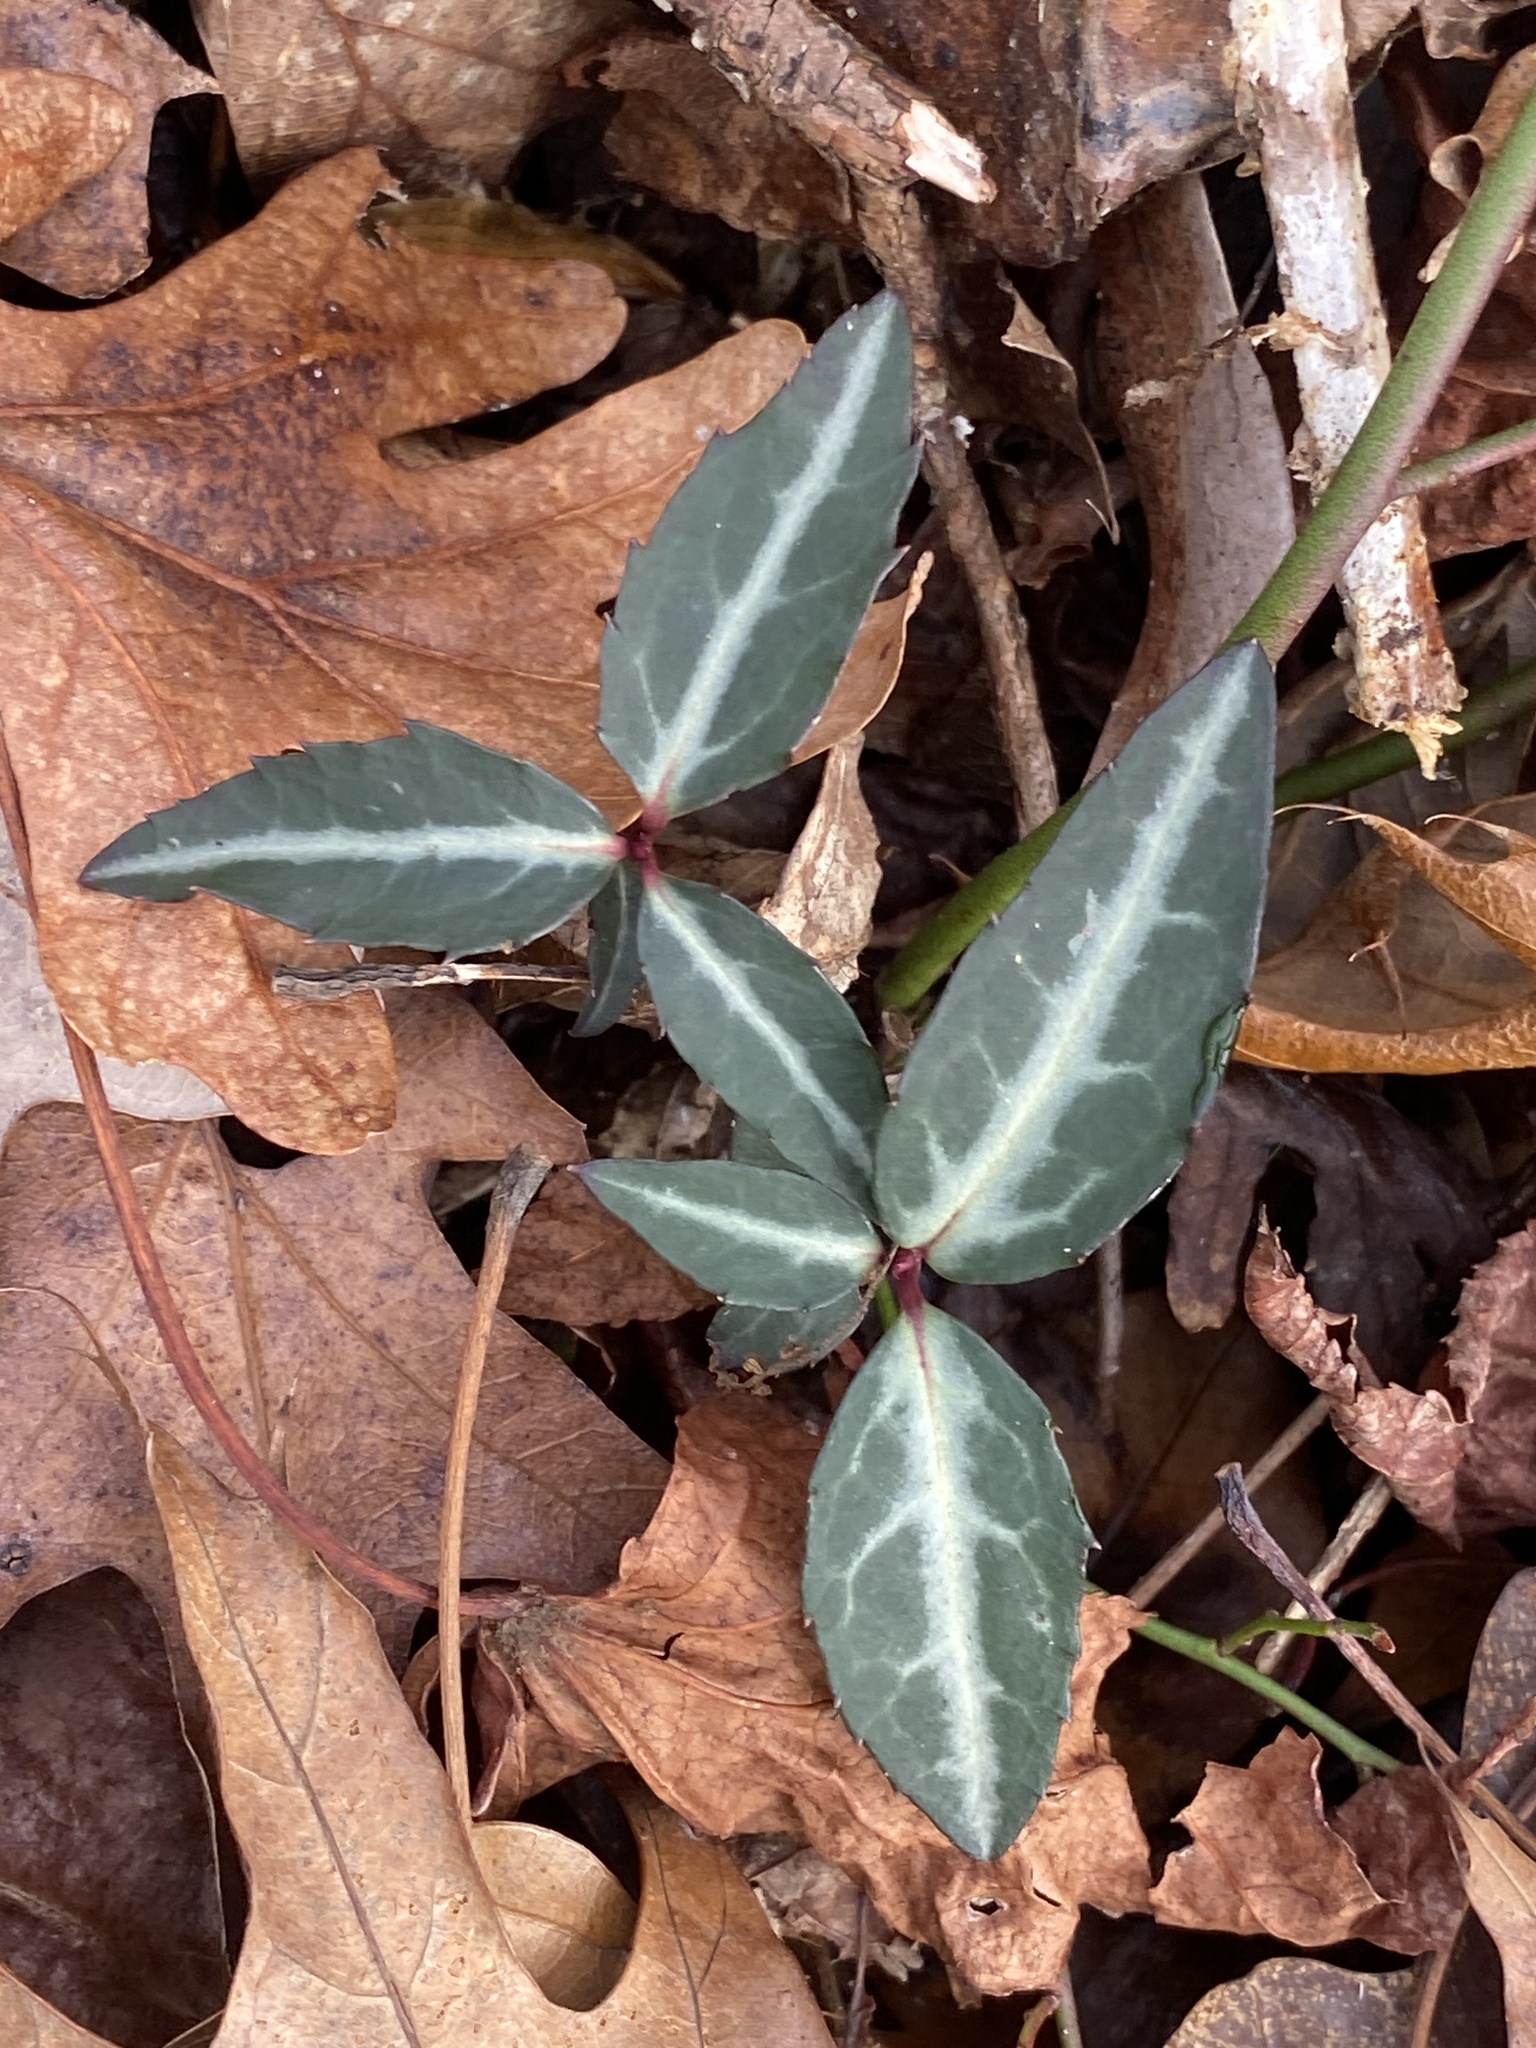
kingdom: Plantae
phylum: Tracheophyta
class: Magnoliopsida
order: Ericales
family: Ericaceae
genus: Chimaphila
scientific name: Chimaphila maculata
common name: Spotted pipsissewa
